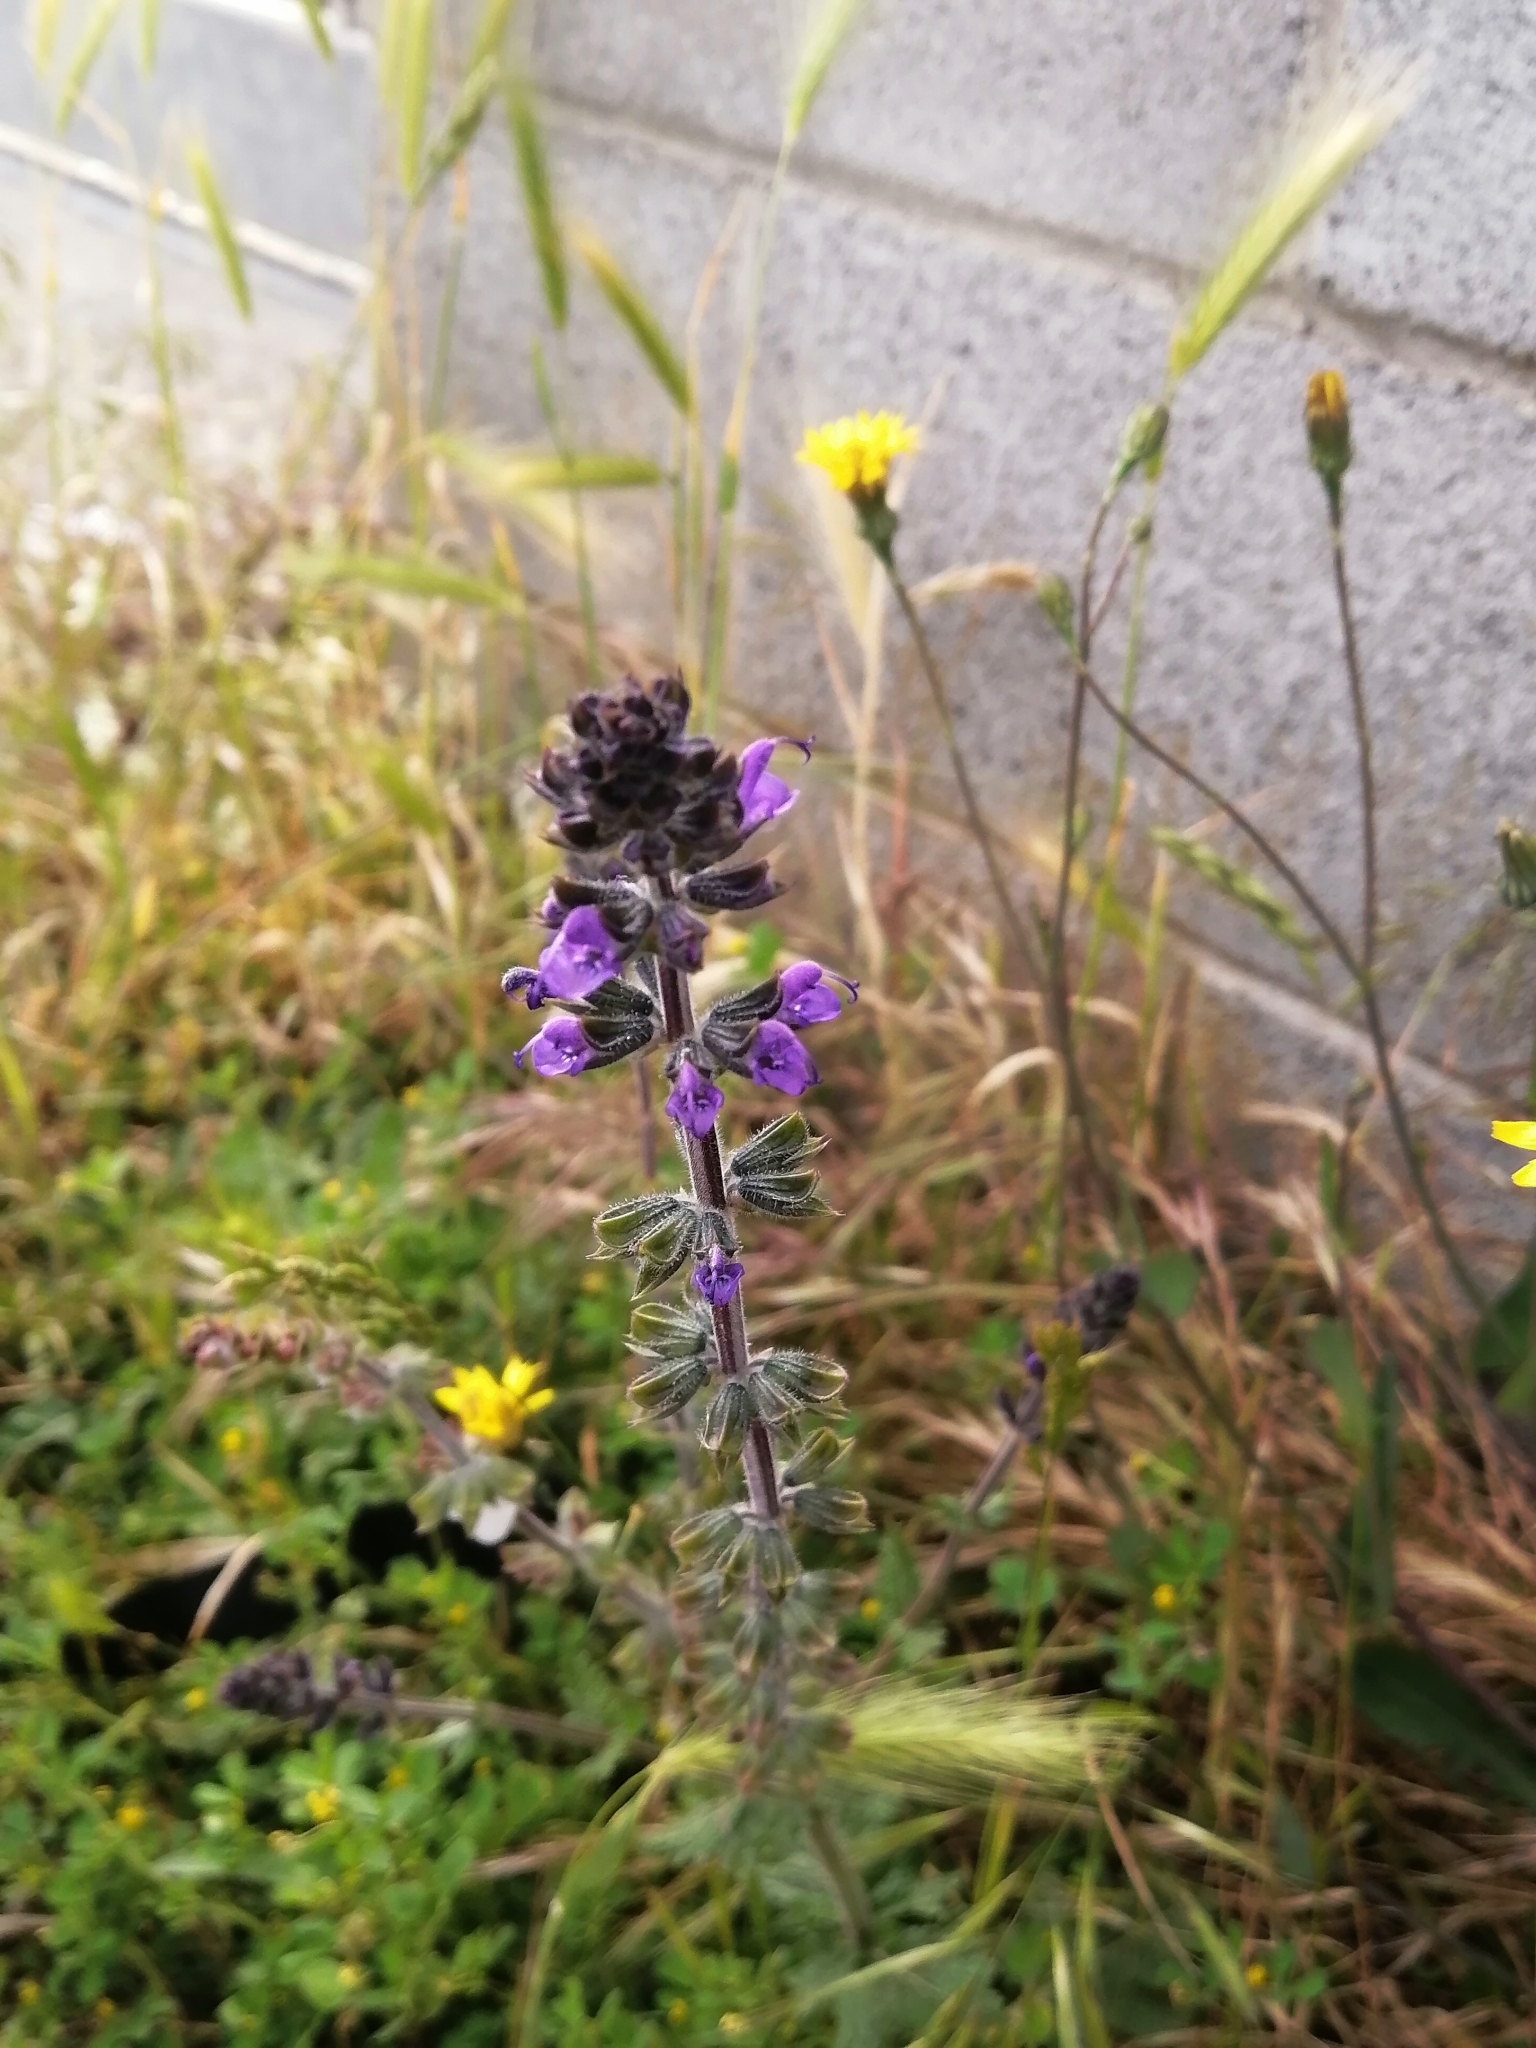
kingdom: Plantae
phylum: Tracheophyta
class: Magnoliopsida
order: Lamiales
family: Lamiaceae
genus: Salvia
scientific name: Salvia verbenaca
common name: Wild clary
